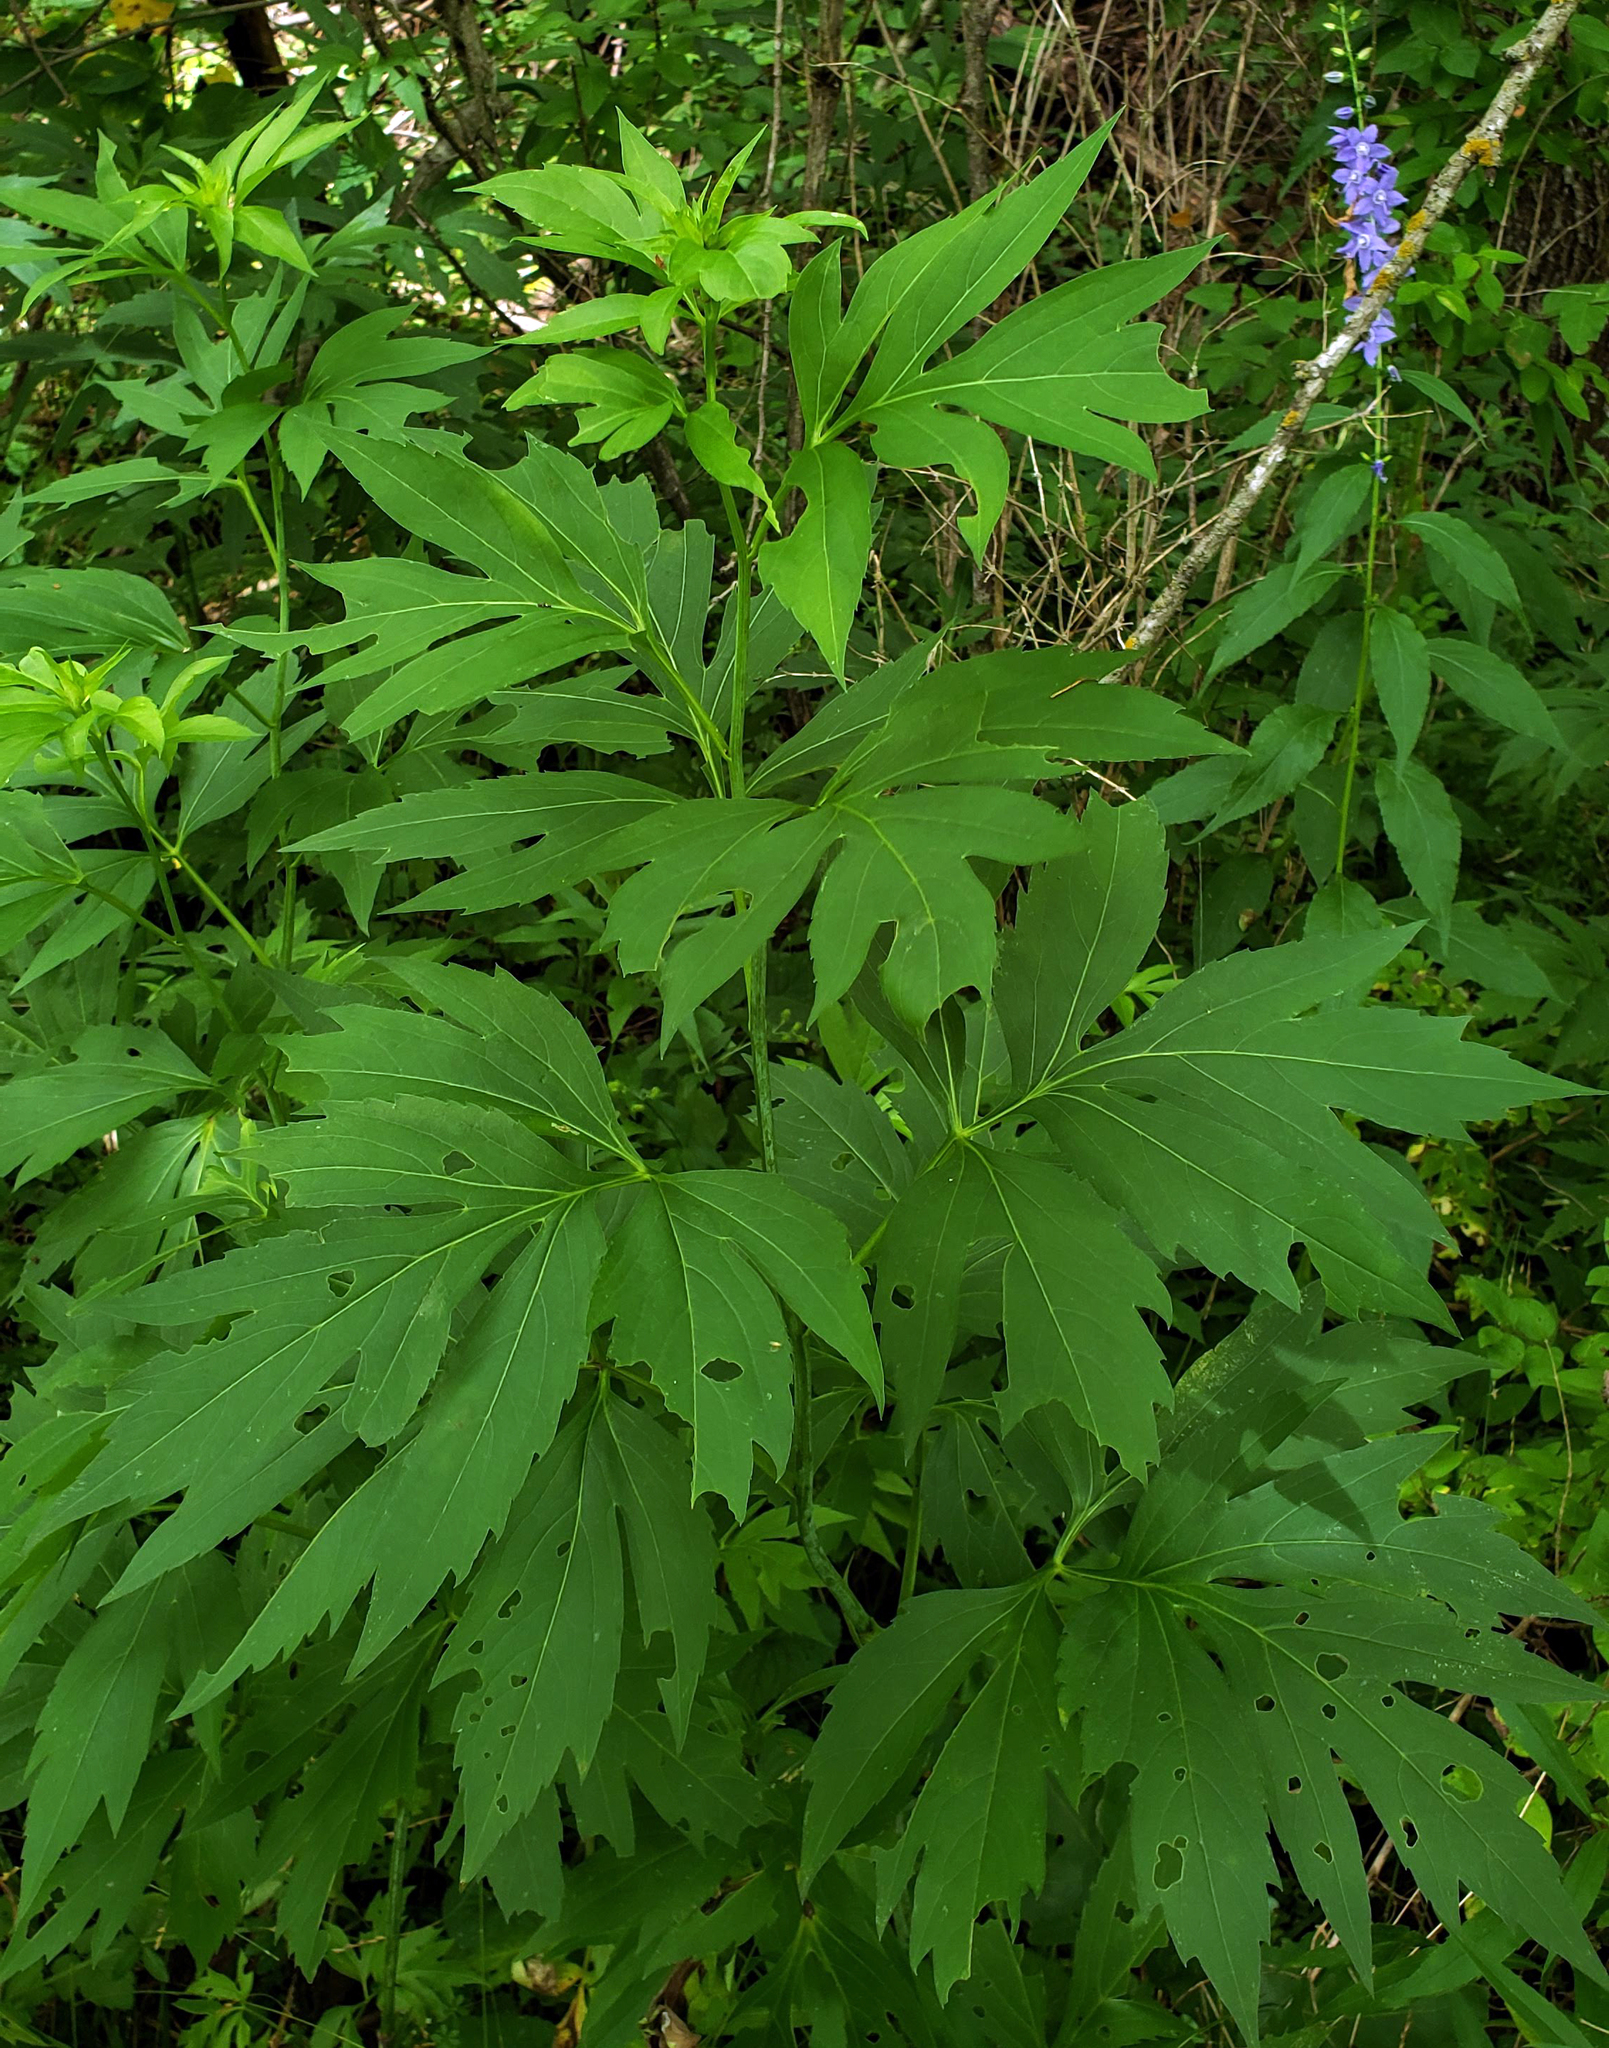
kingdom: Plantae
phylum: Tracheophyta
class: Magnoliopsida
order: Asterales
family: Asteraceae
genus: Rudbeckia
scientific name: Rudbeckia laciniata
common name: Coneflower
